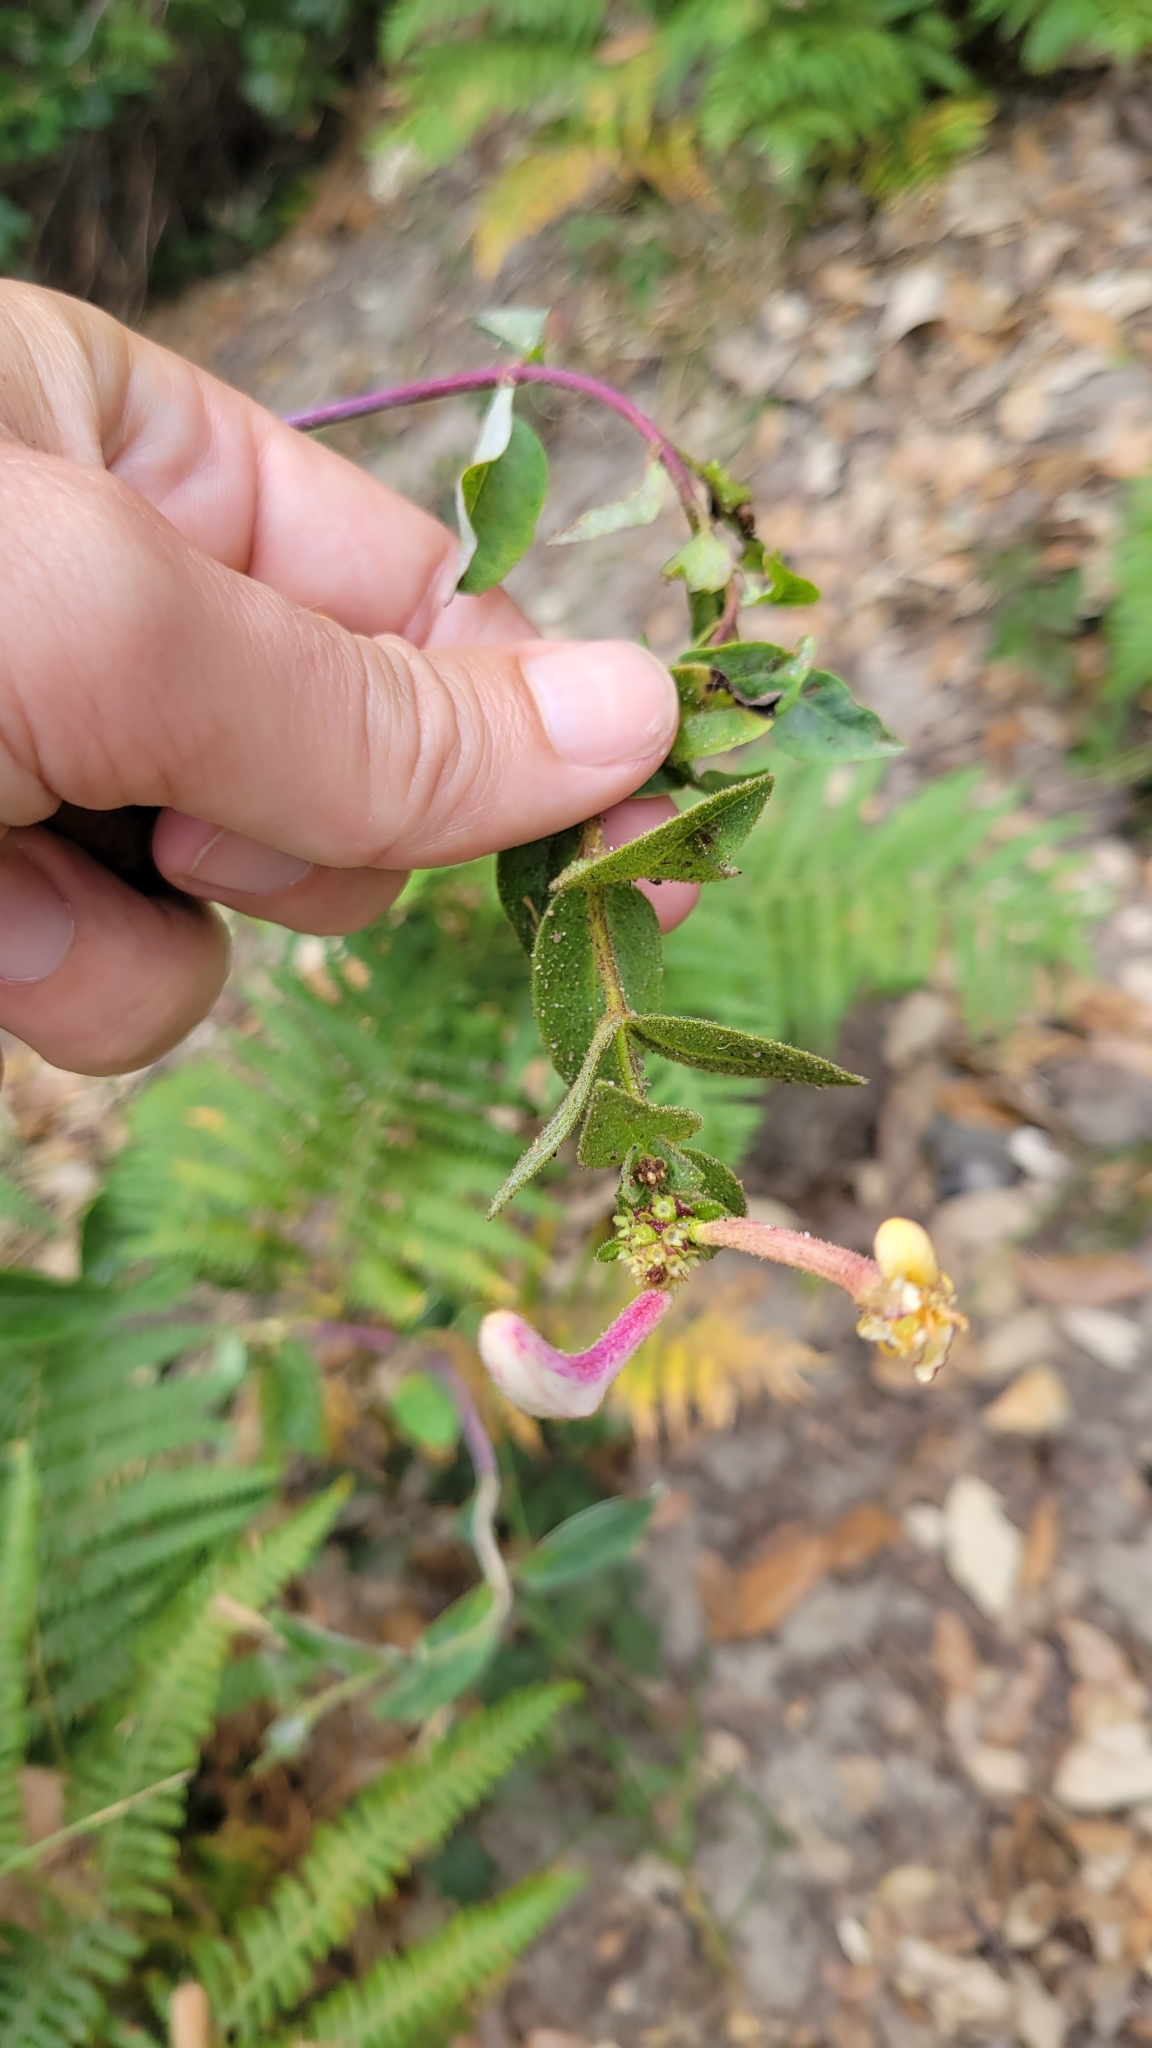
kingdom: Plantae
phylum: Tracheophyta
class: Magnoliopsida
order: Dipsacales
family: Caprifoliaceae
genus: Lonicera
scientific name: Lonicera periclymenum
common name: European honeysuckle
